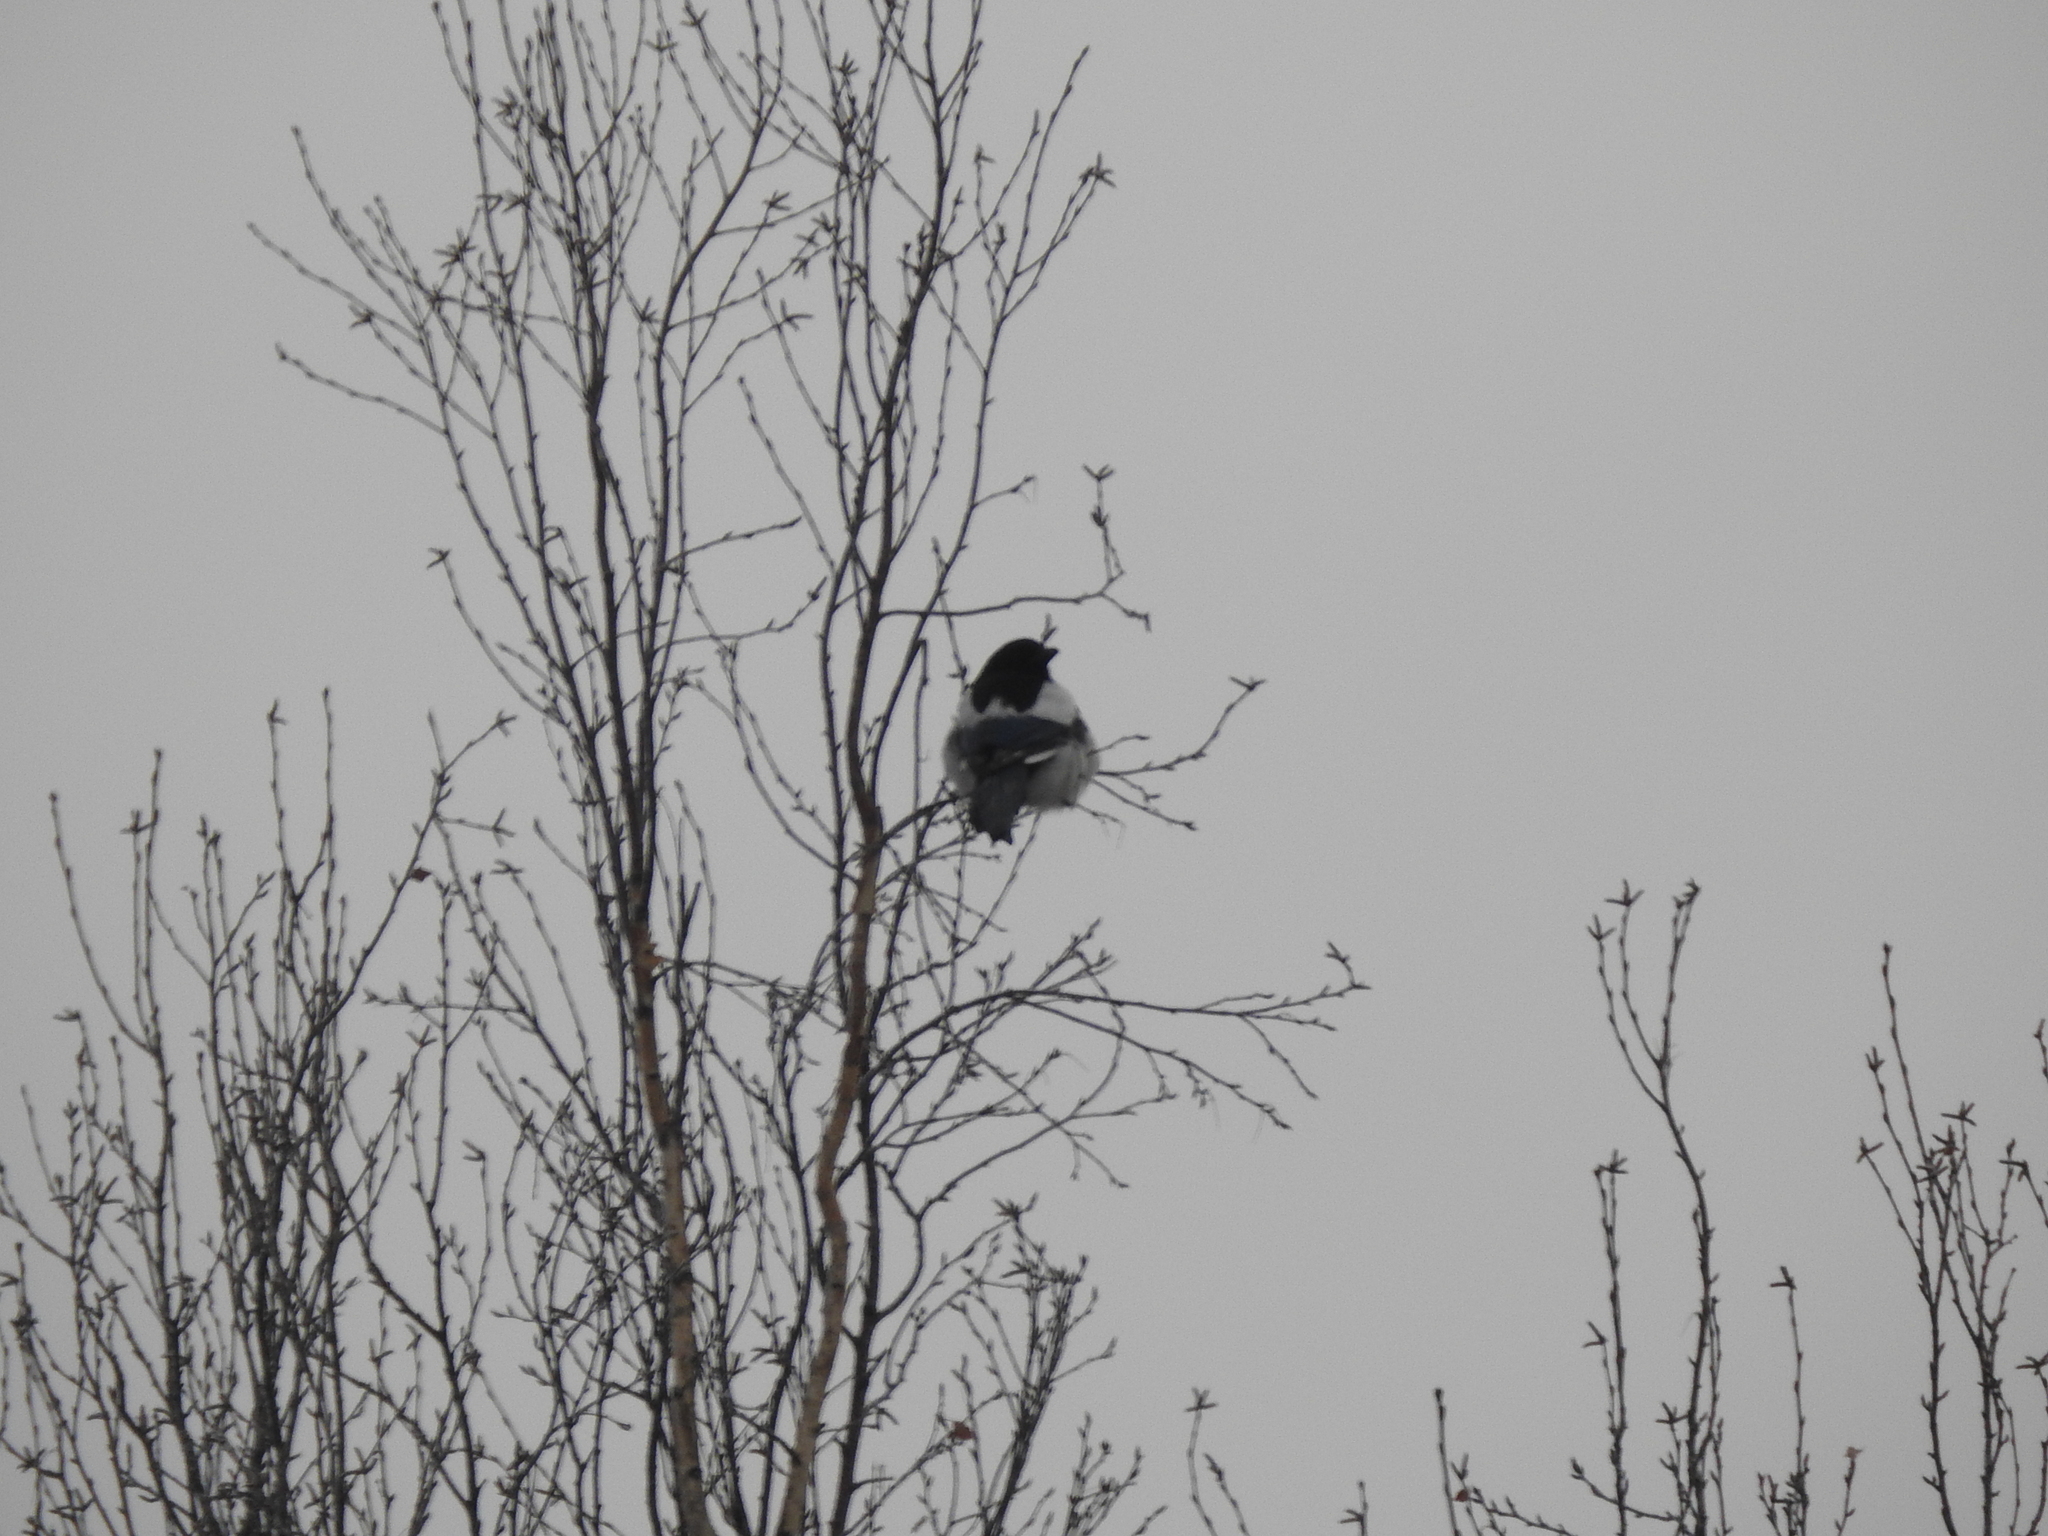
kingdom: Animalia
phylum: Chordata
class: Aves
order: Passeriformes
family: Corvidae
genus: Pica
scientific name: Pica pica
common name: Eurasian magpie
